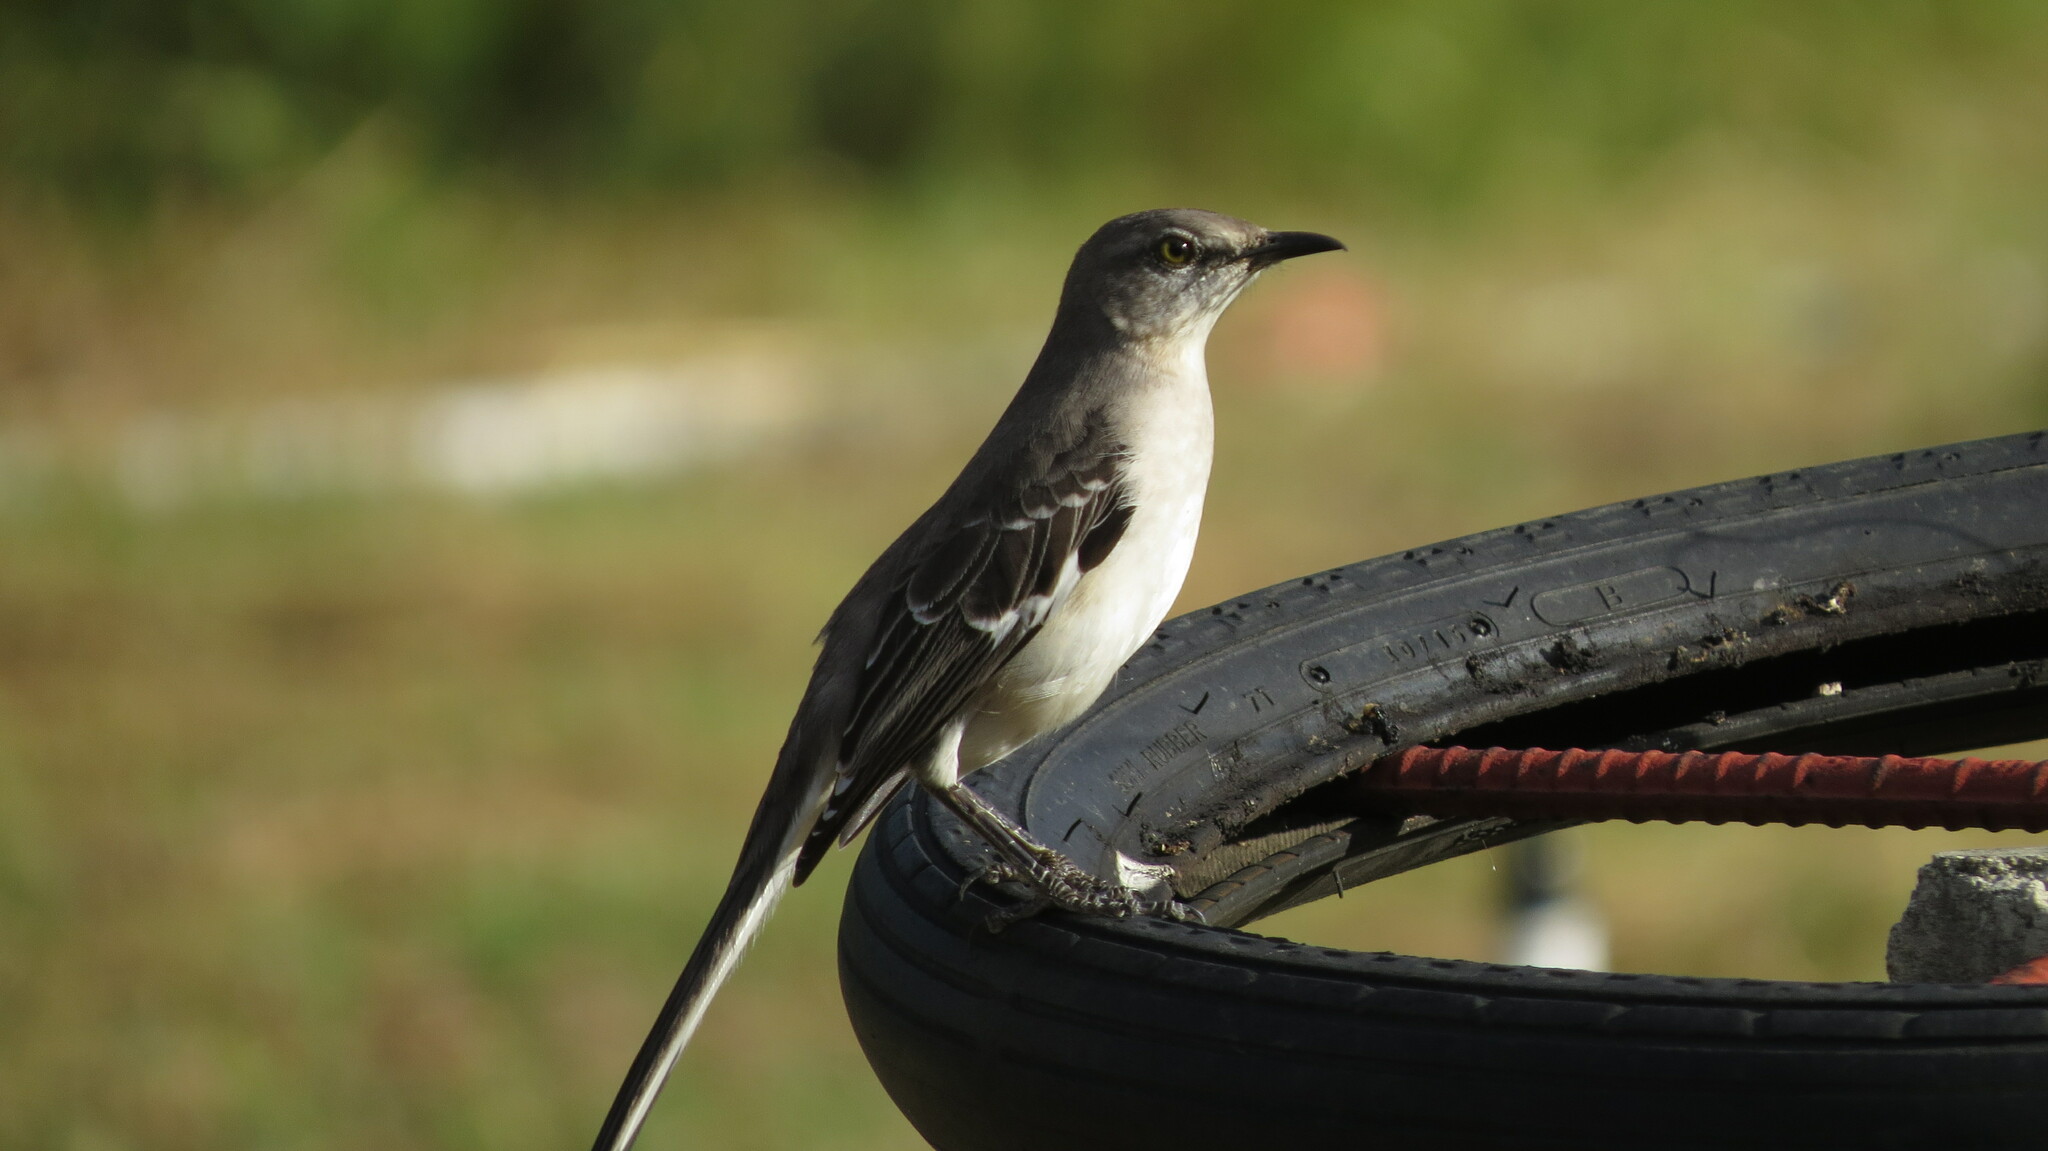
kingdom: Animalia
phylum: Chordata
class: Aves
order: Passeriformes
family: Mimidae
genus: Mimus
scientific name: Mimus polyglottos
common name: Northern mockingbird
